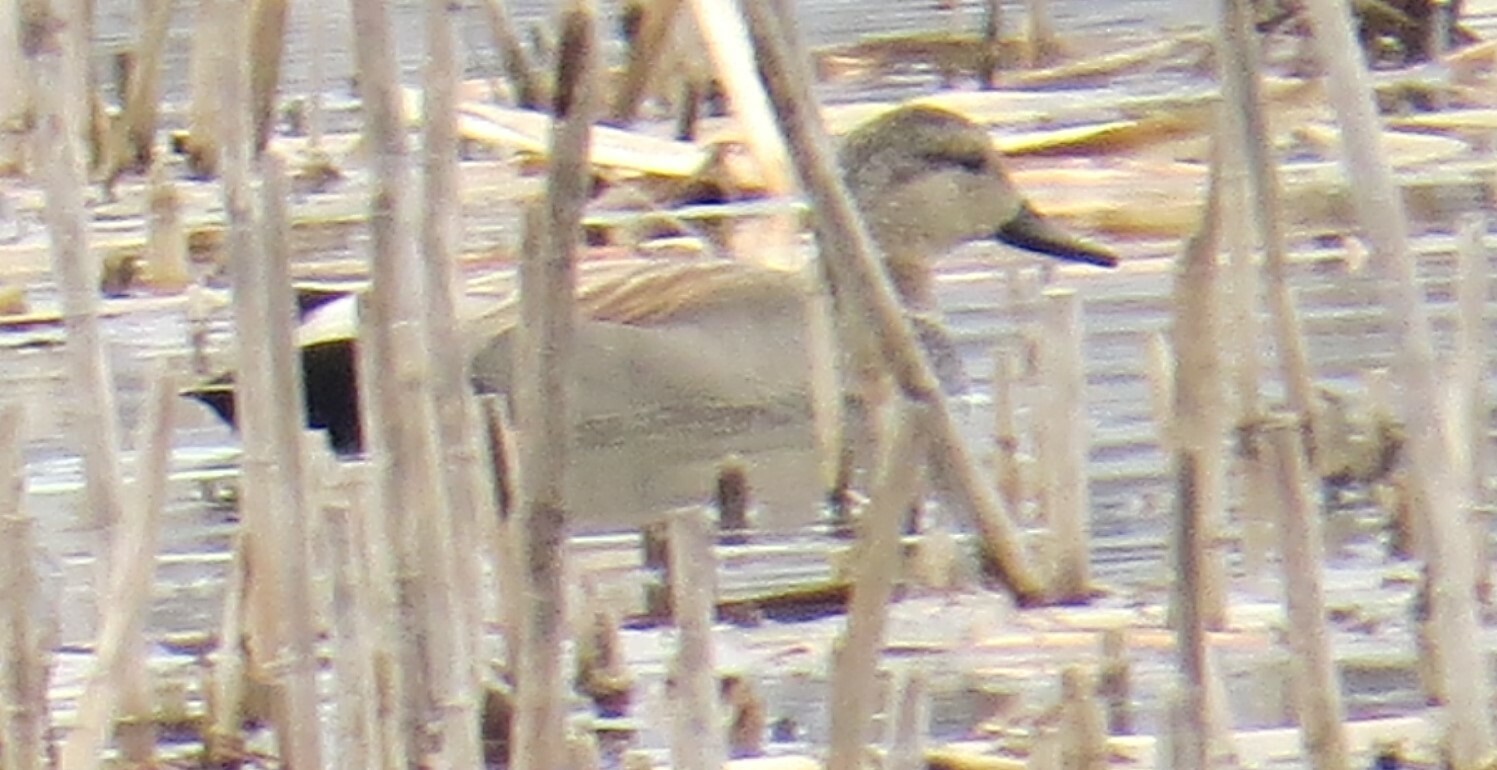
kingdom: Animalia
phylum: Chordata
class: Aves
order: Anseriformes
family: Anatidae
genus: Mareca
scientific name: Mareca strepera
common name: Gadwall
